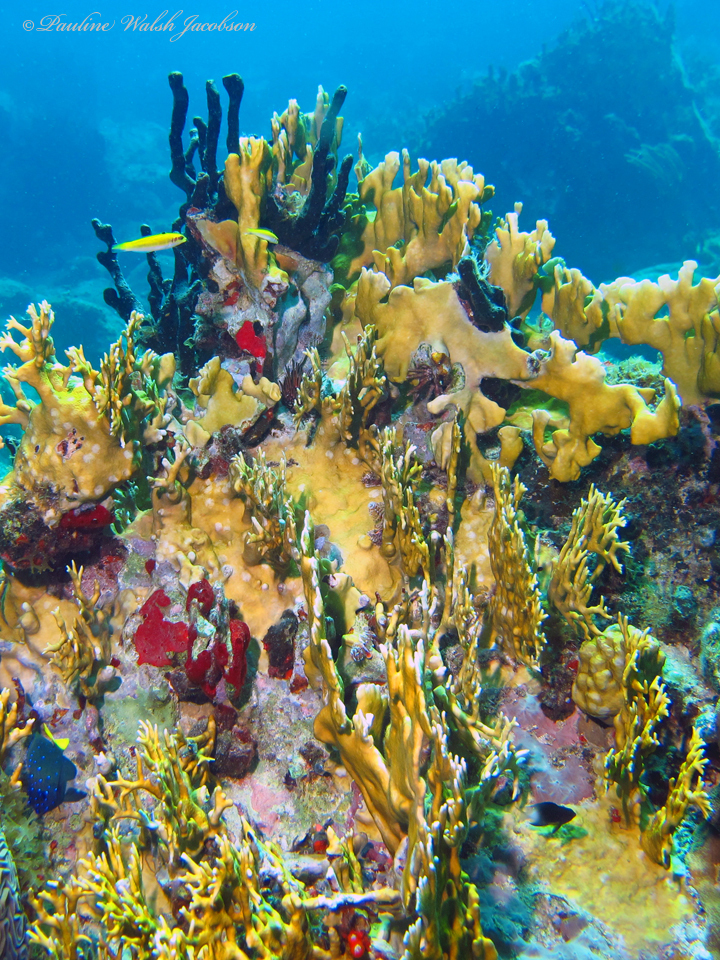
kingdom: Animalia
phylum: Chordata
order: Perciformes
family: Pomacentridae
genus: Microspathodon
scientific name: Microspathodon chrysurus
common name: Yellowtail damselfish
